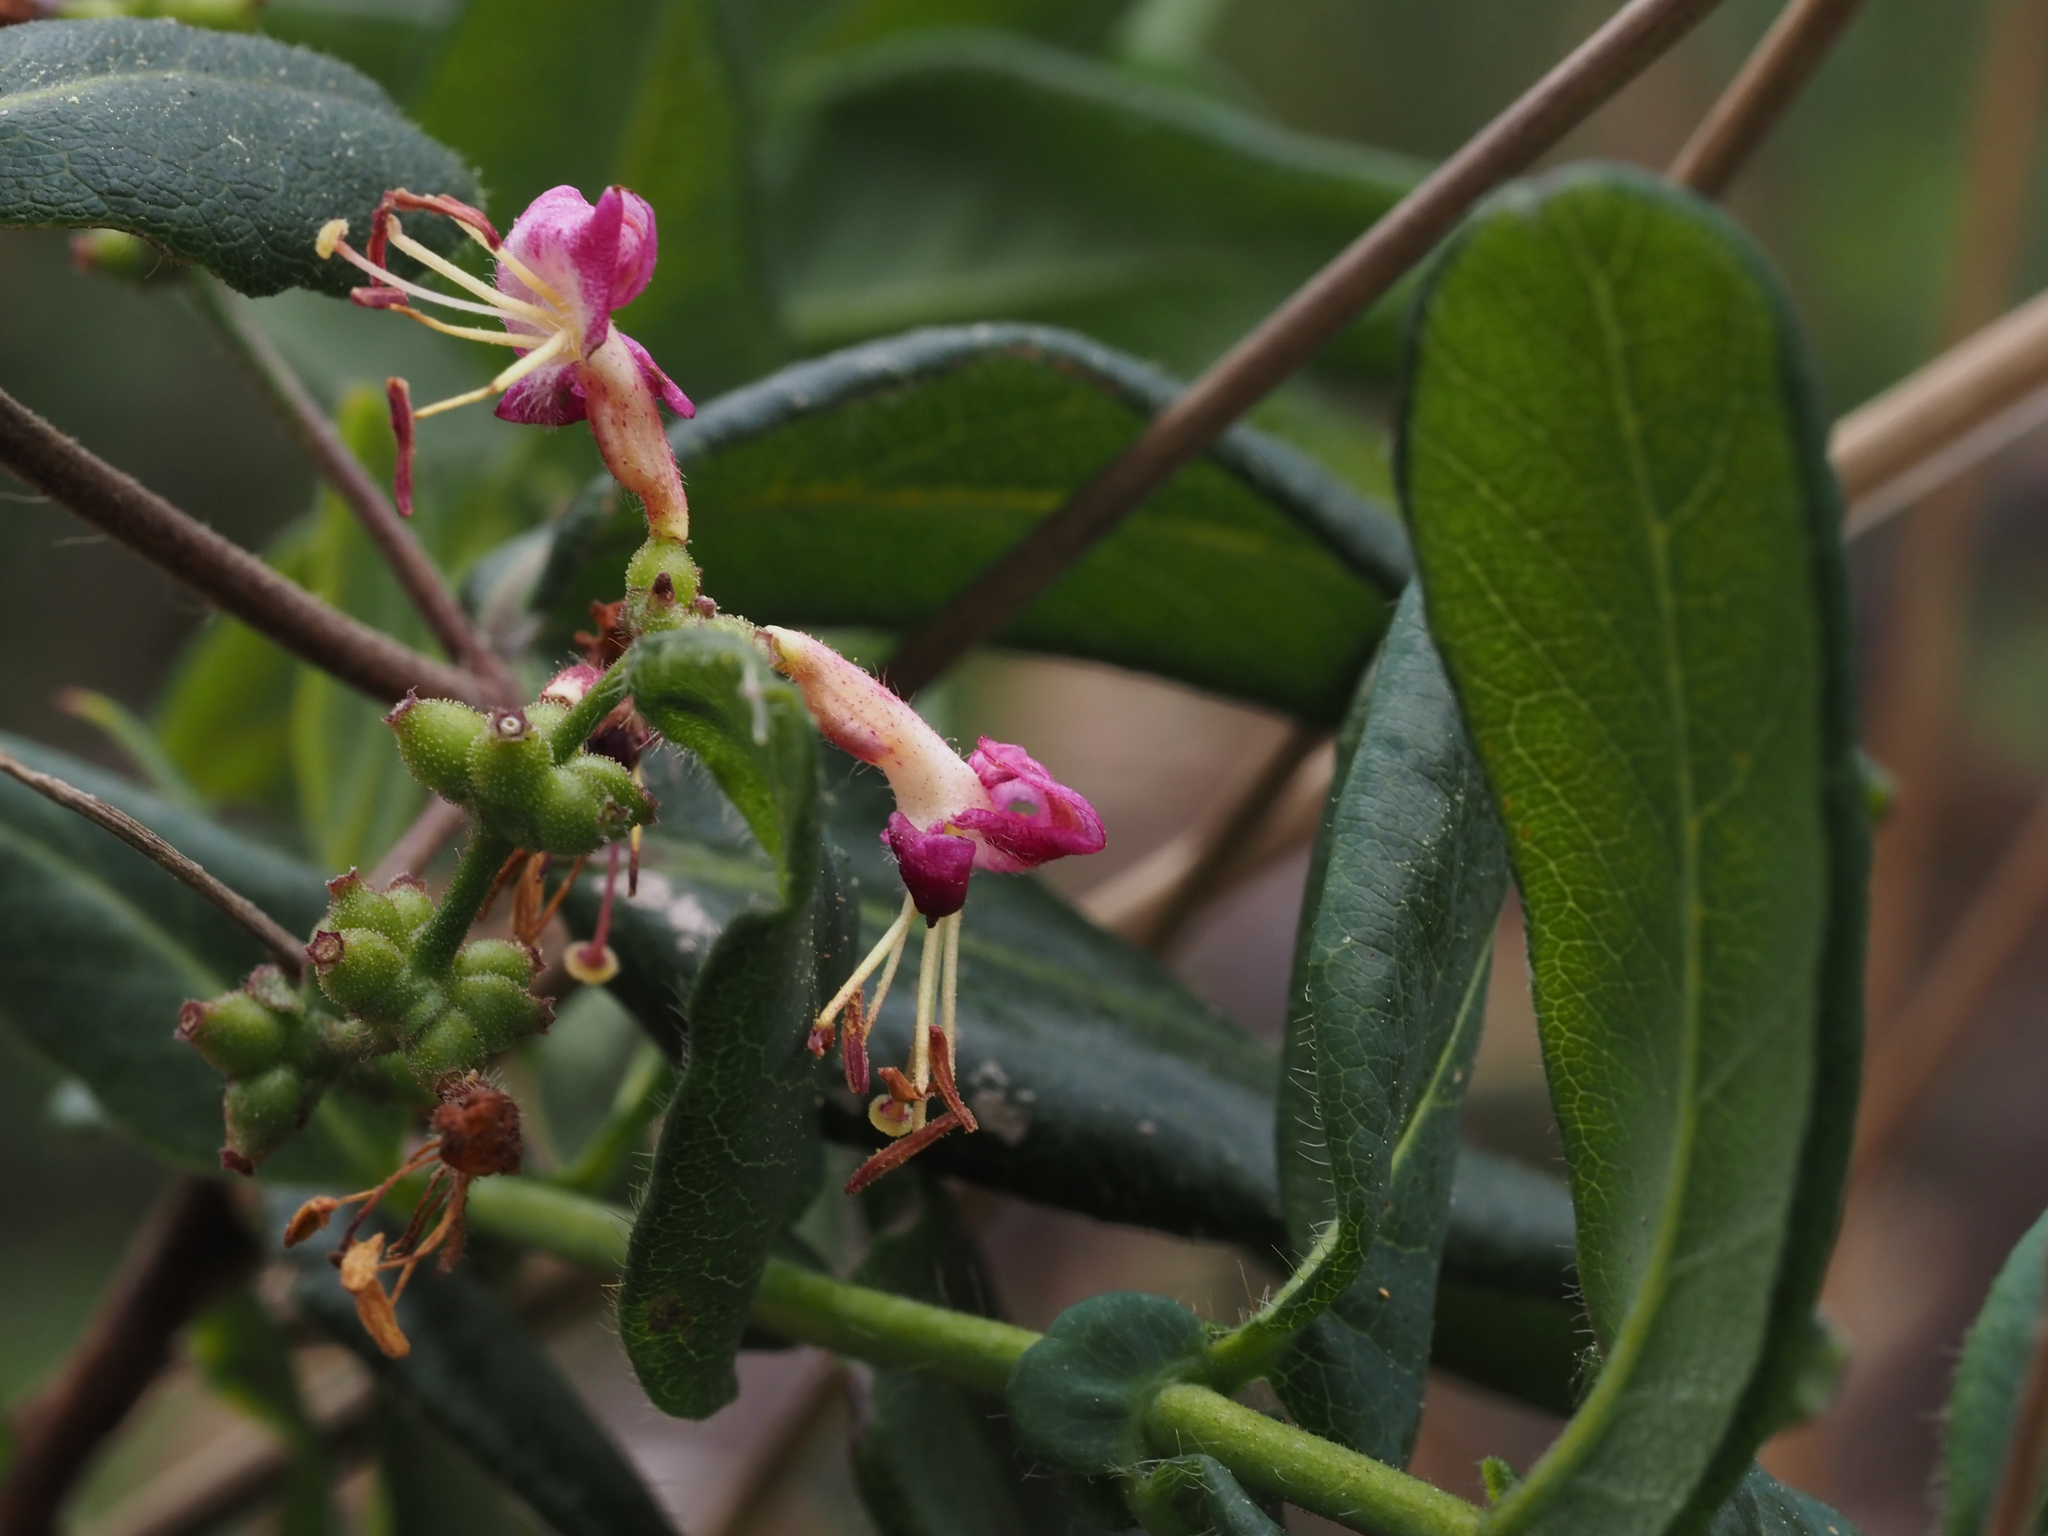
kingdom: Plantae
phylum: Tracheophyta
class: Magnoliopsida
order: Dipsacales
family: Caprifoliaceae
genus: Lonicera
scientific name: Lonicera hispidula
